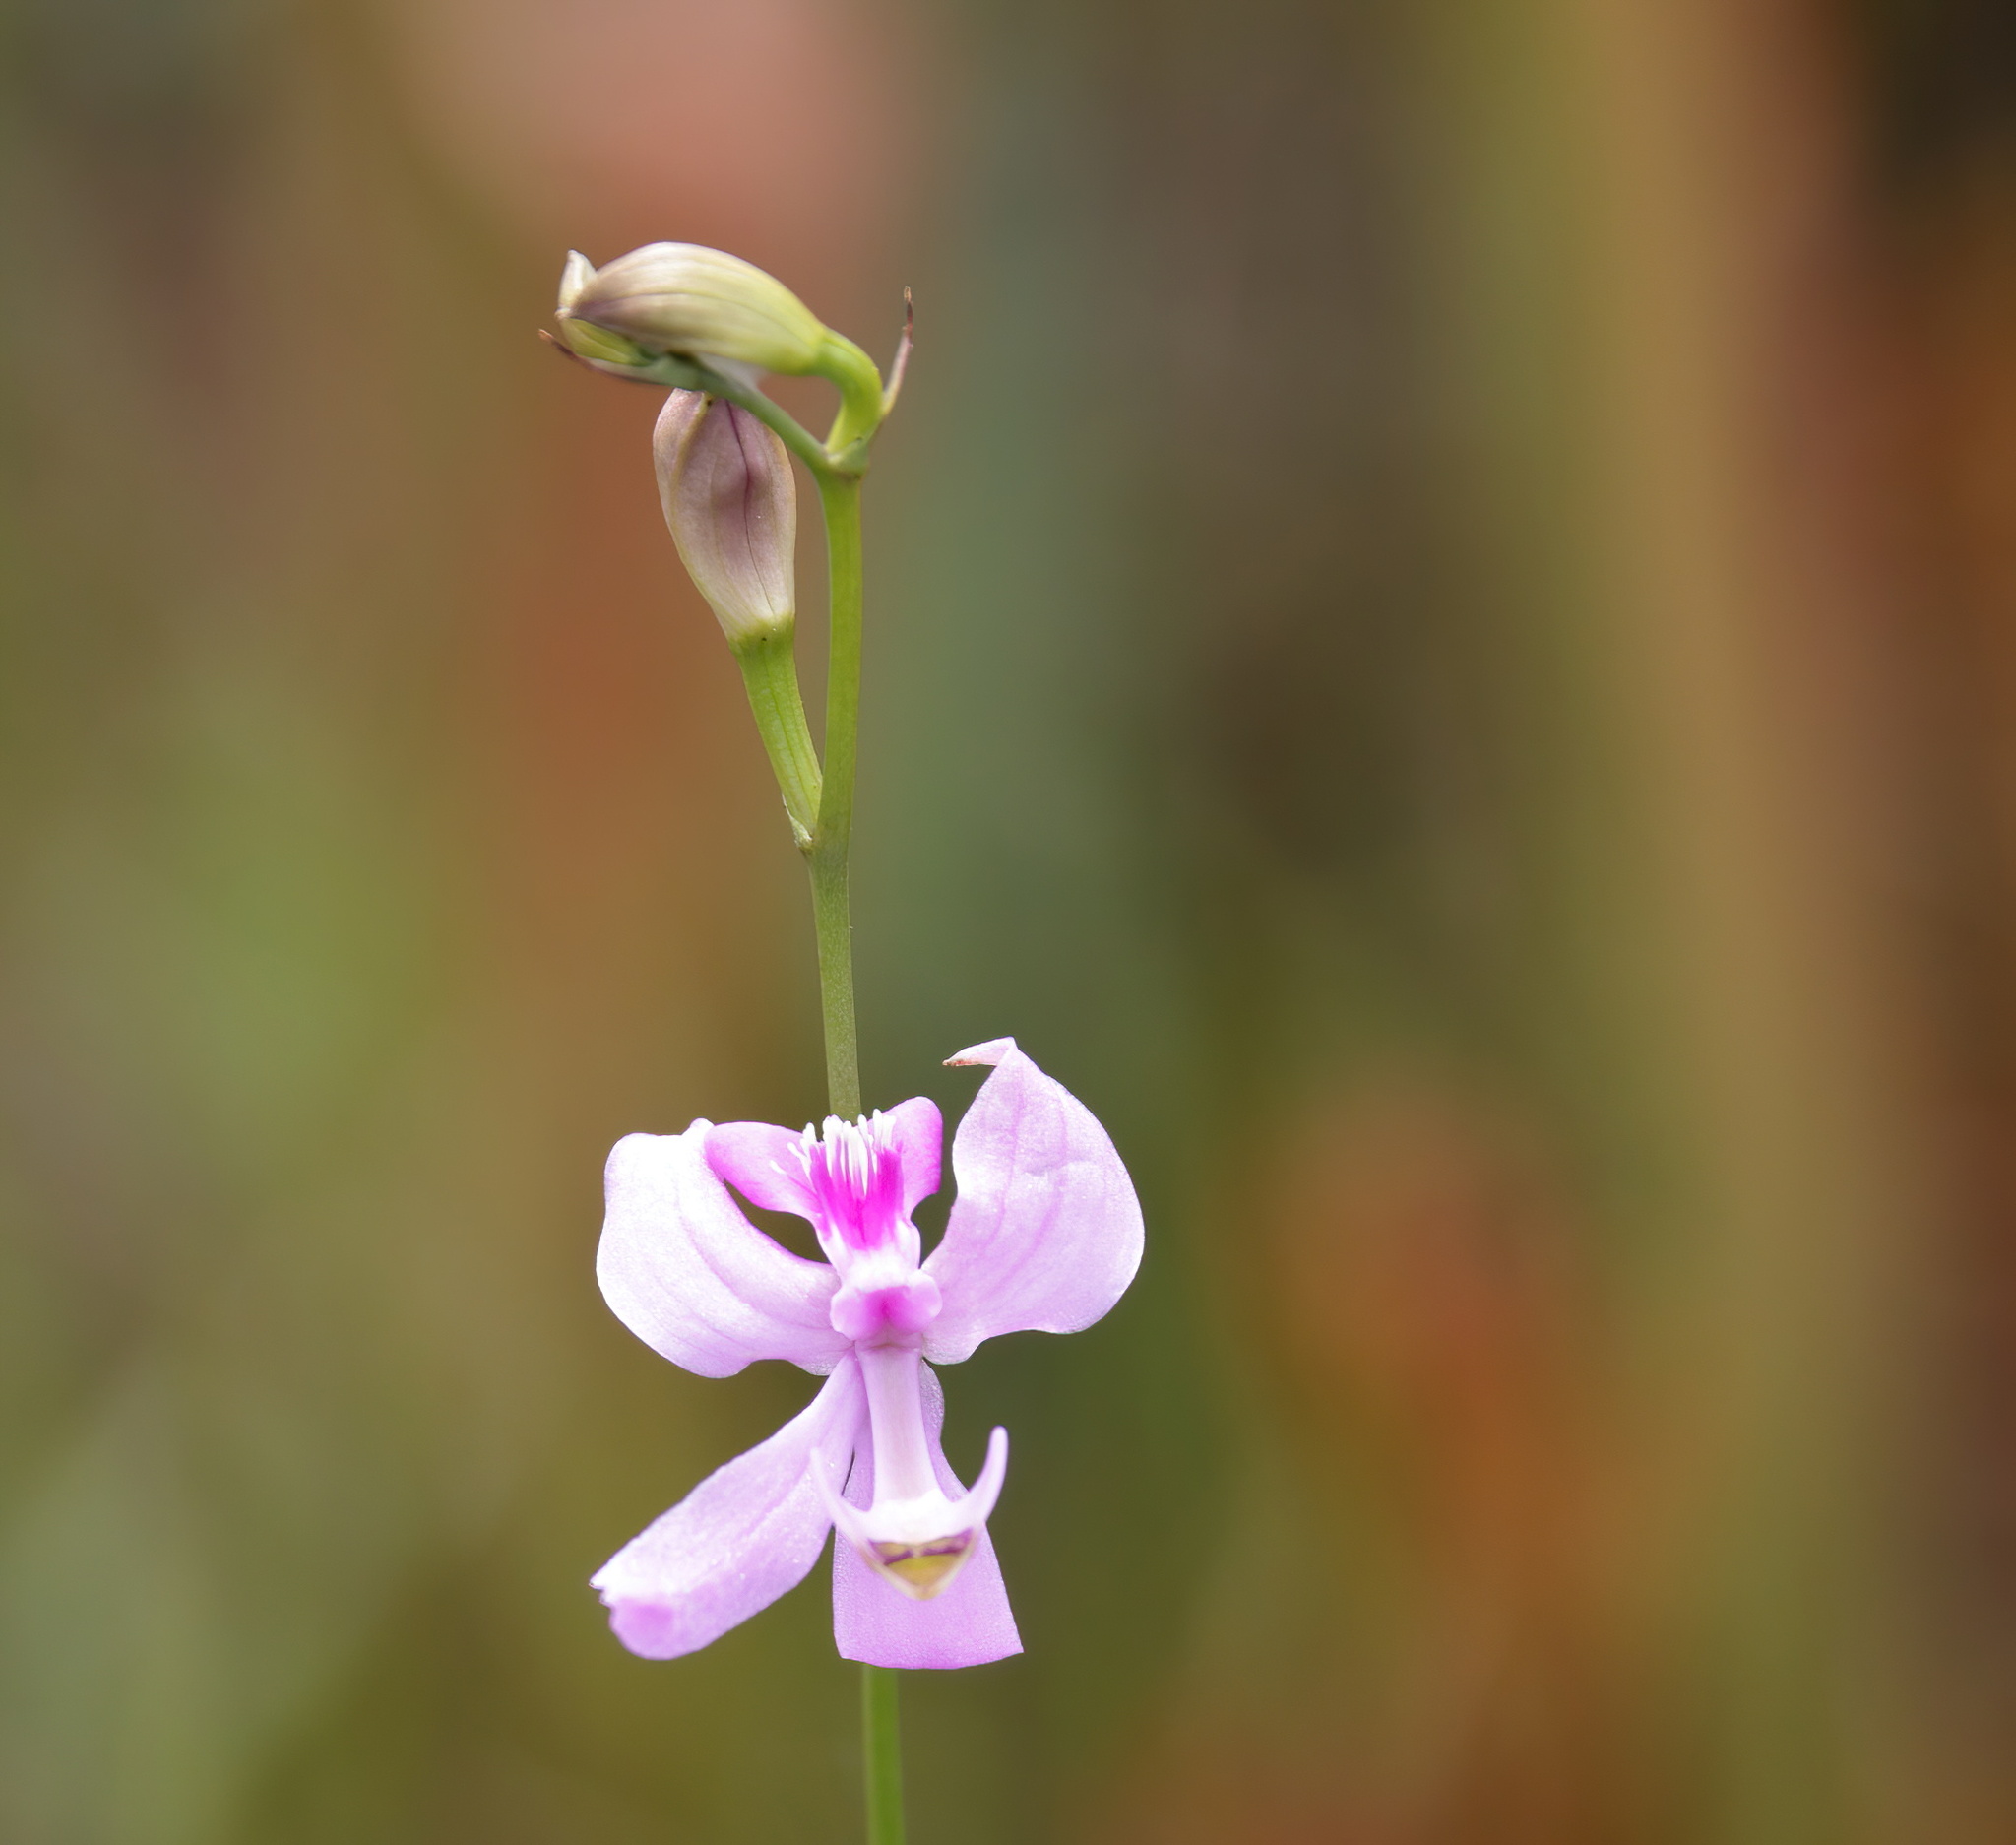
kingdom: Plantae
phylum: Tracheophyta
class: Liliopsida
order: Asparagales
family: Orchidaceae
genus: Calopogon
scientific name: Calopogon pallidus
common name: Pale grasspink
